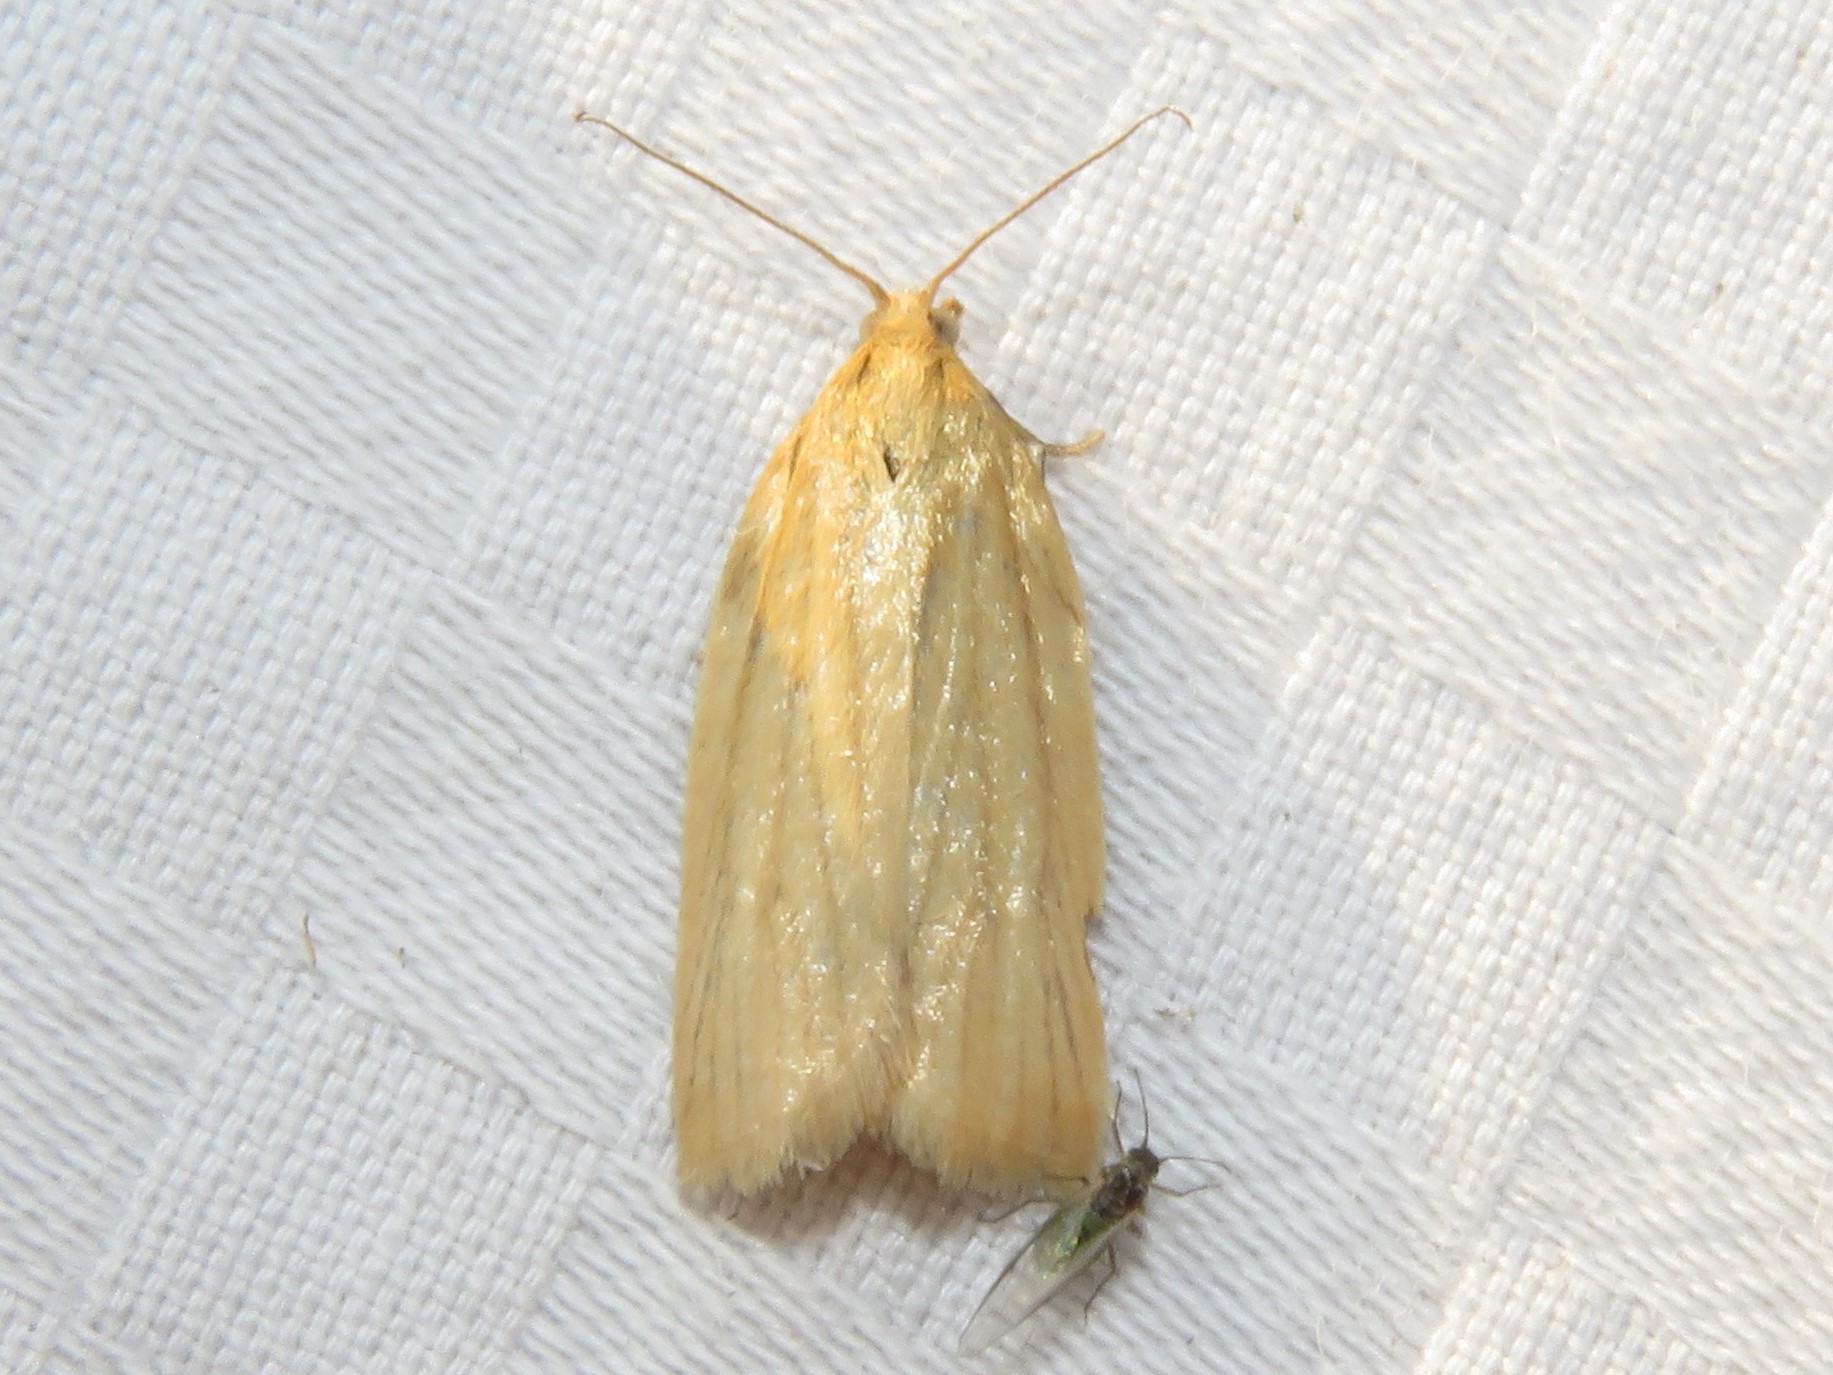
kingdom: Animalia
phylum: Arthropoda
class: Insecta
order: Lepidoptera
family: Tortricidae
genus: Clepsis
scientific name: Clepsis clemensiana
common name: Clemens' clepsis moth
